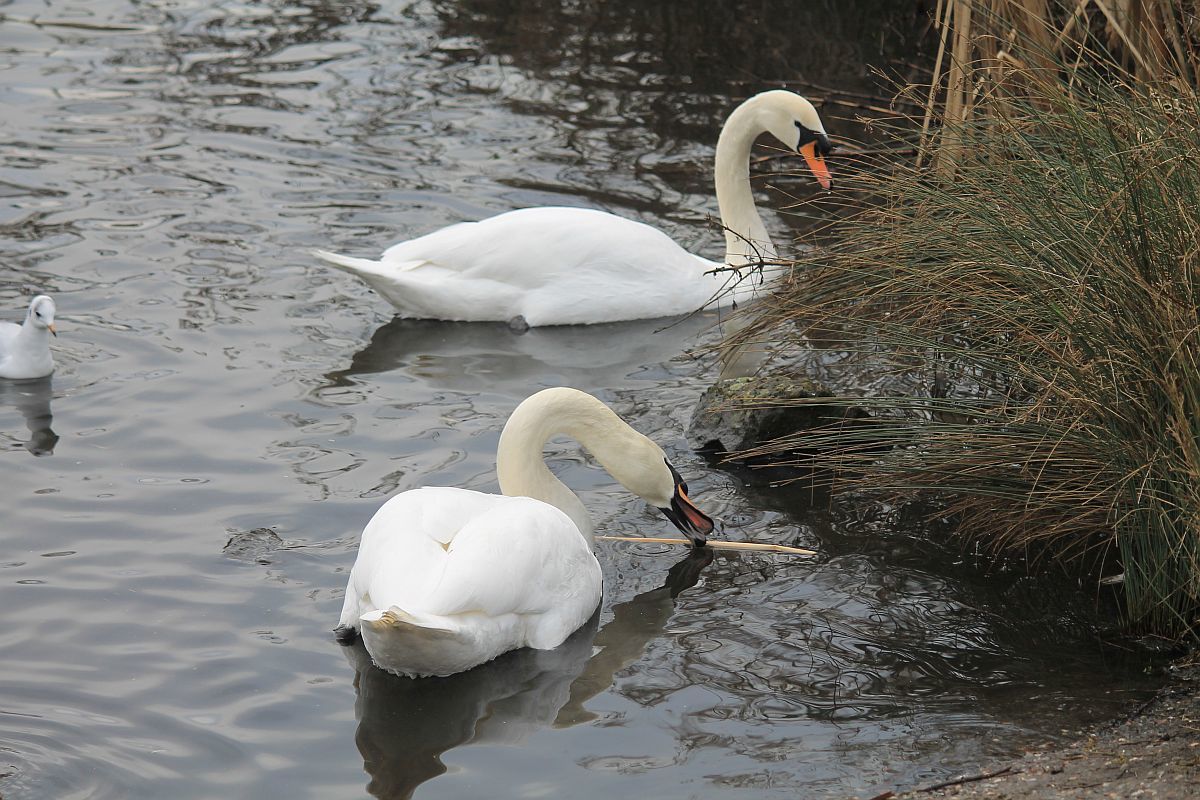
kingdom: Animalia
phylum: Chordata
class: Aves
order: Anseriformes
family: Anatidae
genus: Cygnus
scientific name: Cygnus olor
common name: Mute swan
